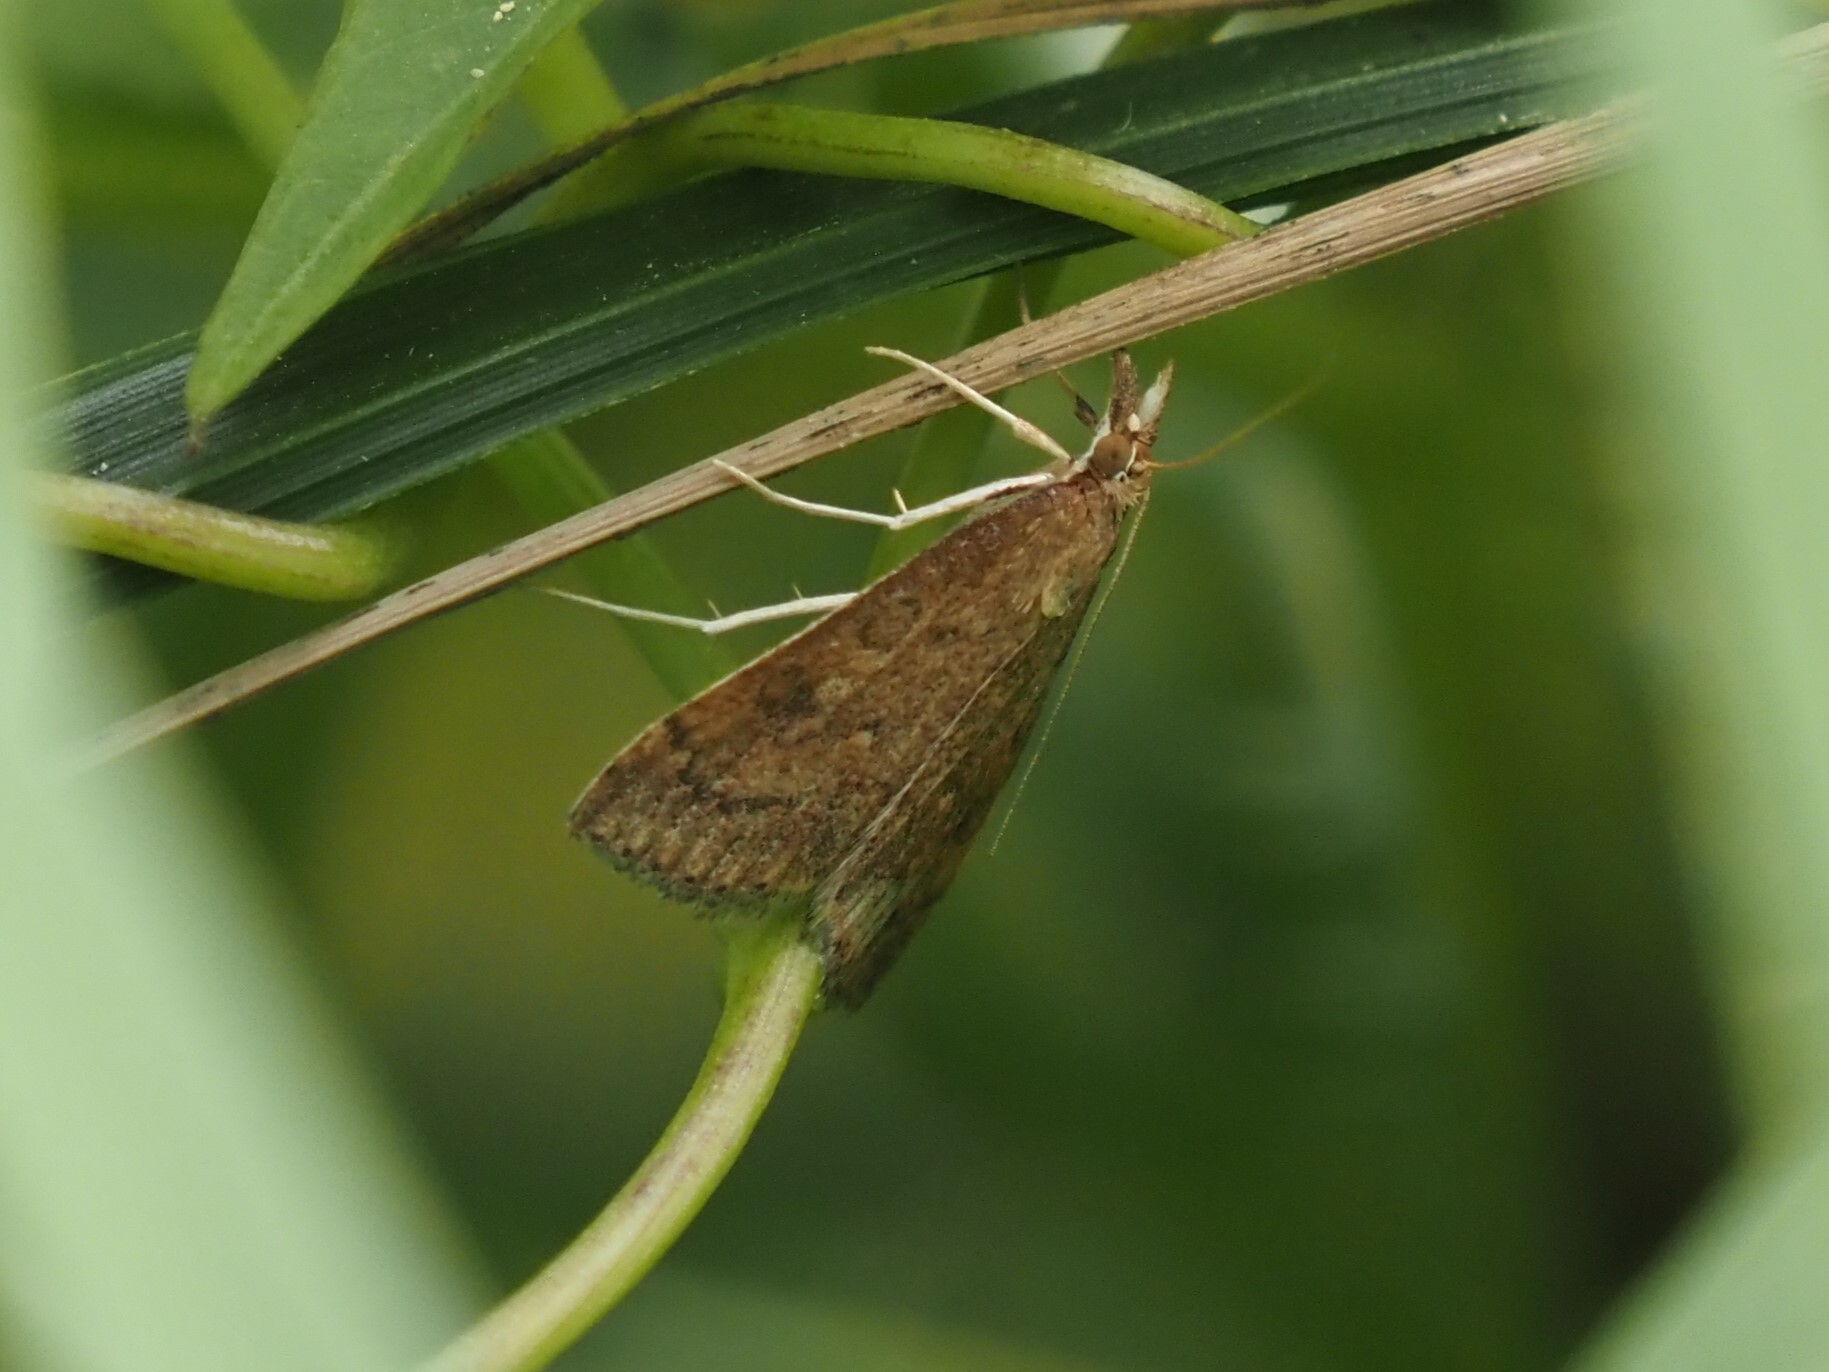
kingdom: Animalia
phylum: Arthropoda
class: Insecta
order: Lepidoptera
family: Crambidae
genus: Udea
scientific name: Udea rubigalis
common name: Celery leaftier moth
